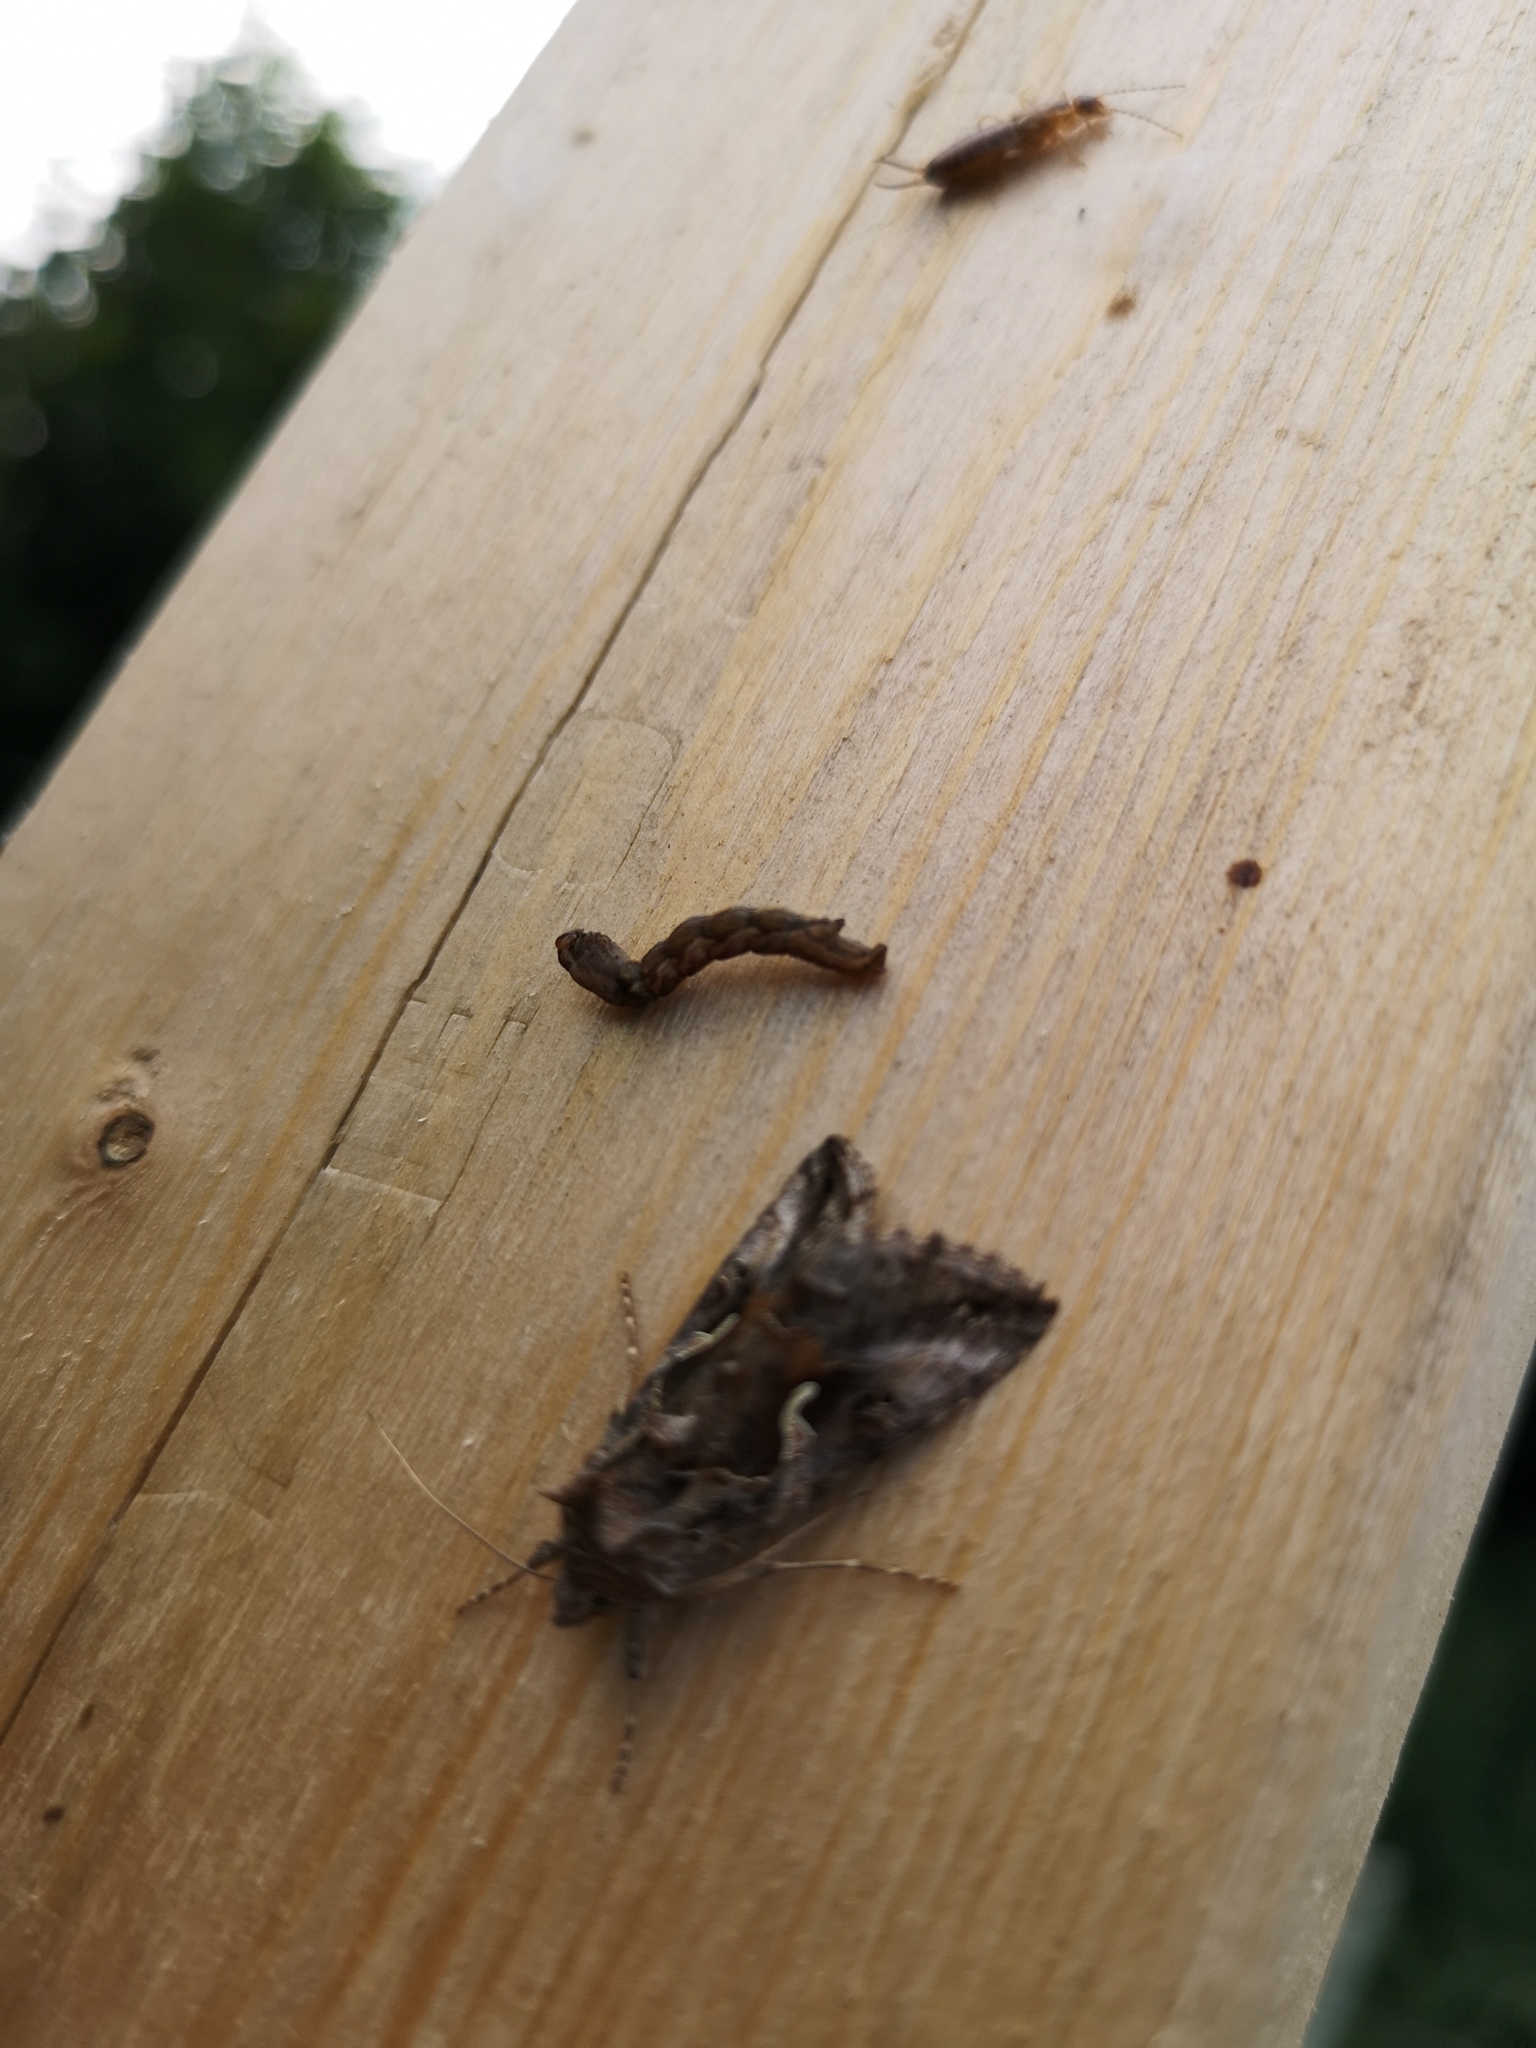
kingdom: Animalia
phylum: Arthropoda
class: Insecta
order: Lepidoptera
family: Noctuidae
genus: Autographa
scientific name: Autographa gamma
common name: Silver y
